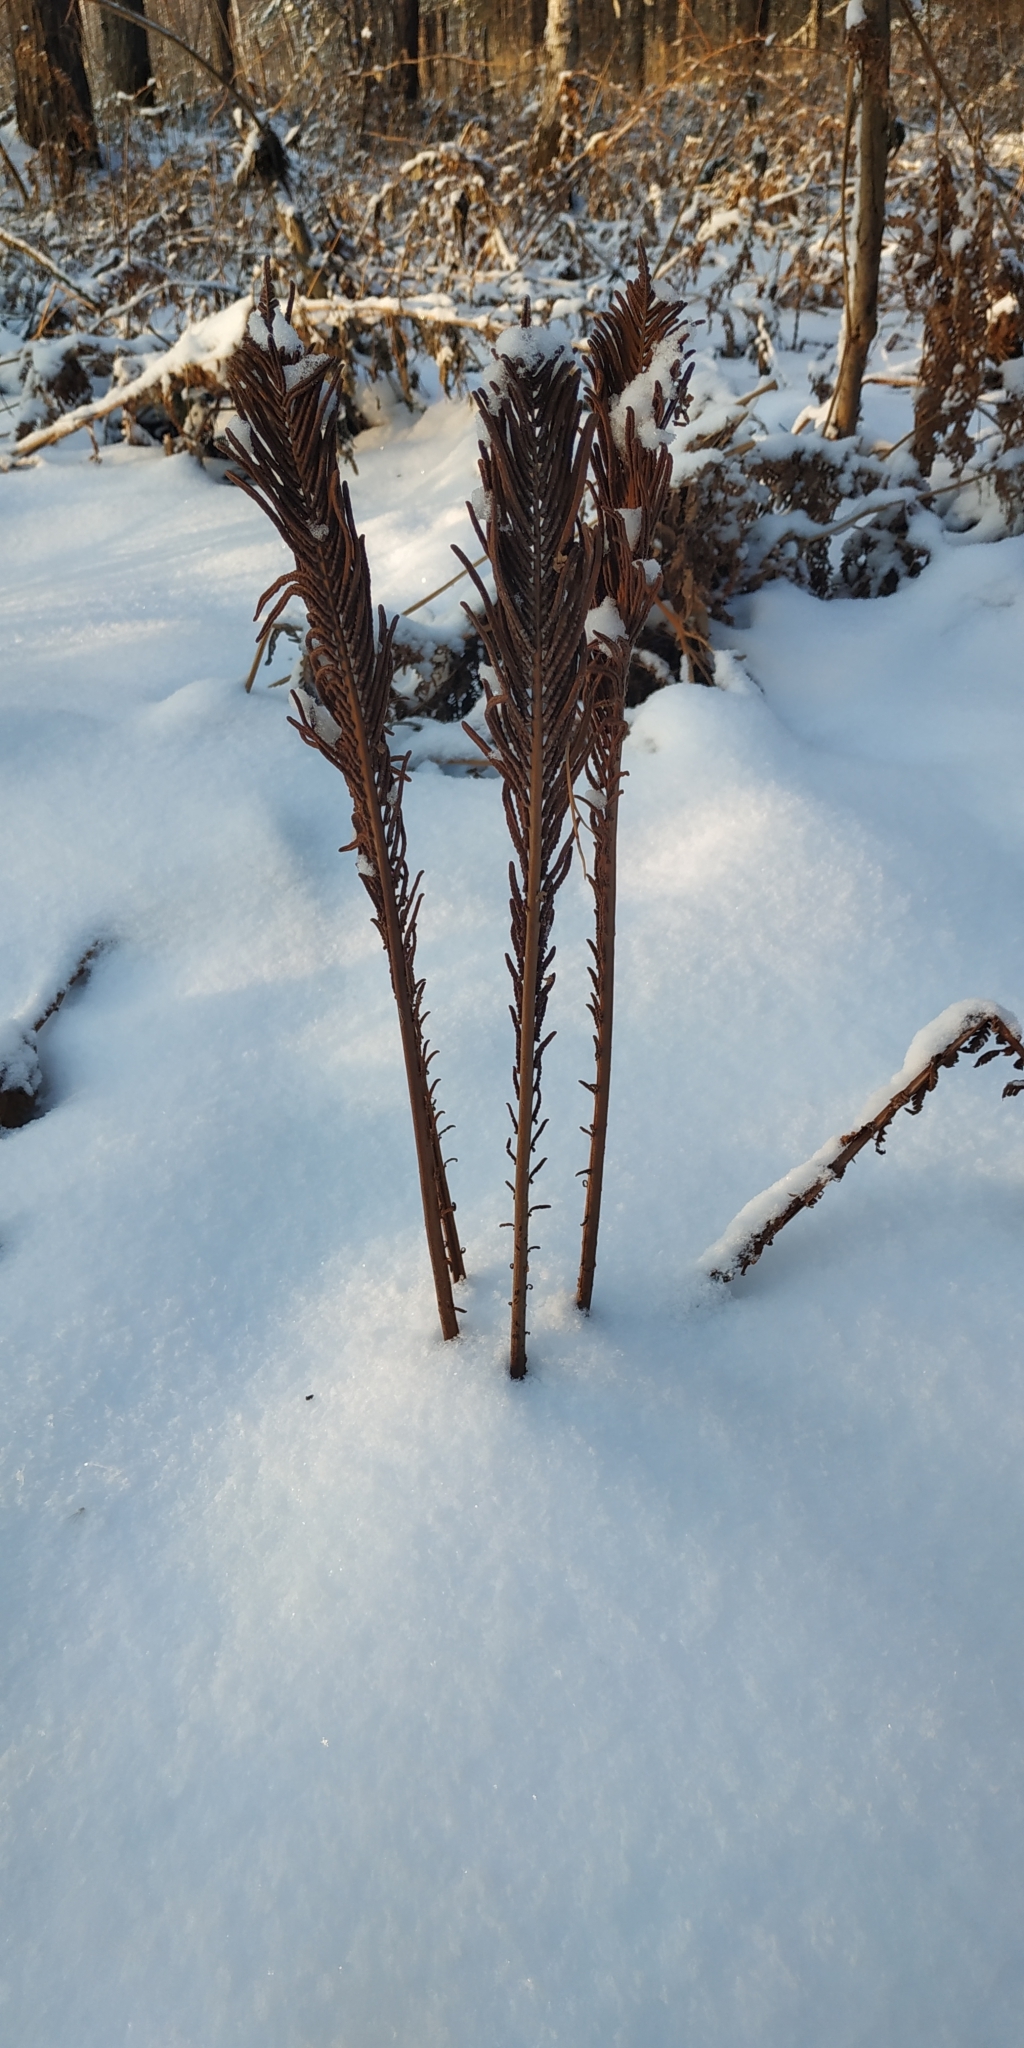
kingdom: Plantae
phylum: Tracheophyta
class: Polypodiopsida
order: Polypodiales
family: Onocleaceae
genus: Matteuccia
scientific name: Matteuccia struthiopteris
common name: Ostrich fern
